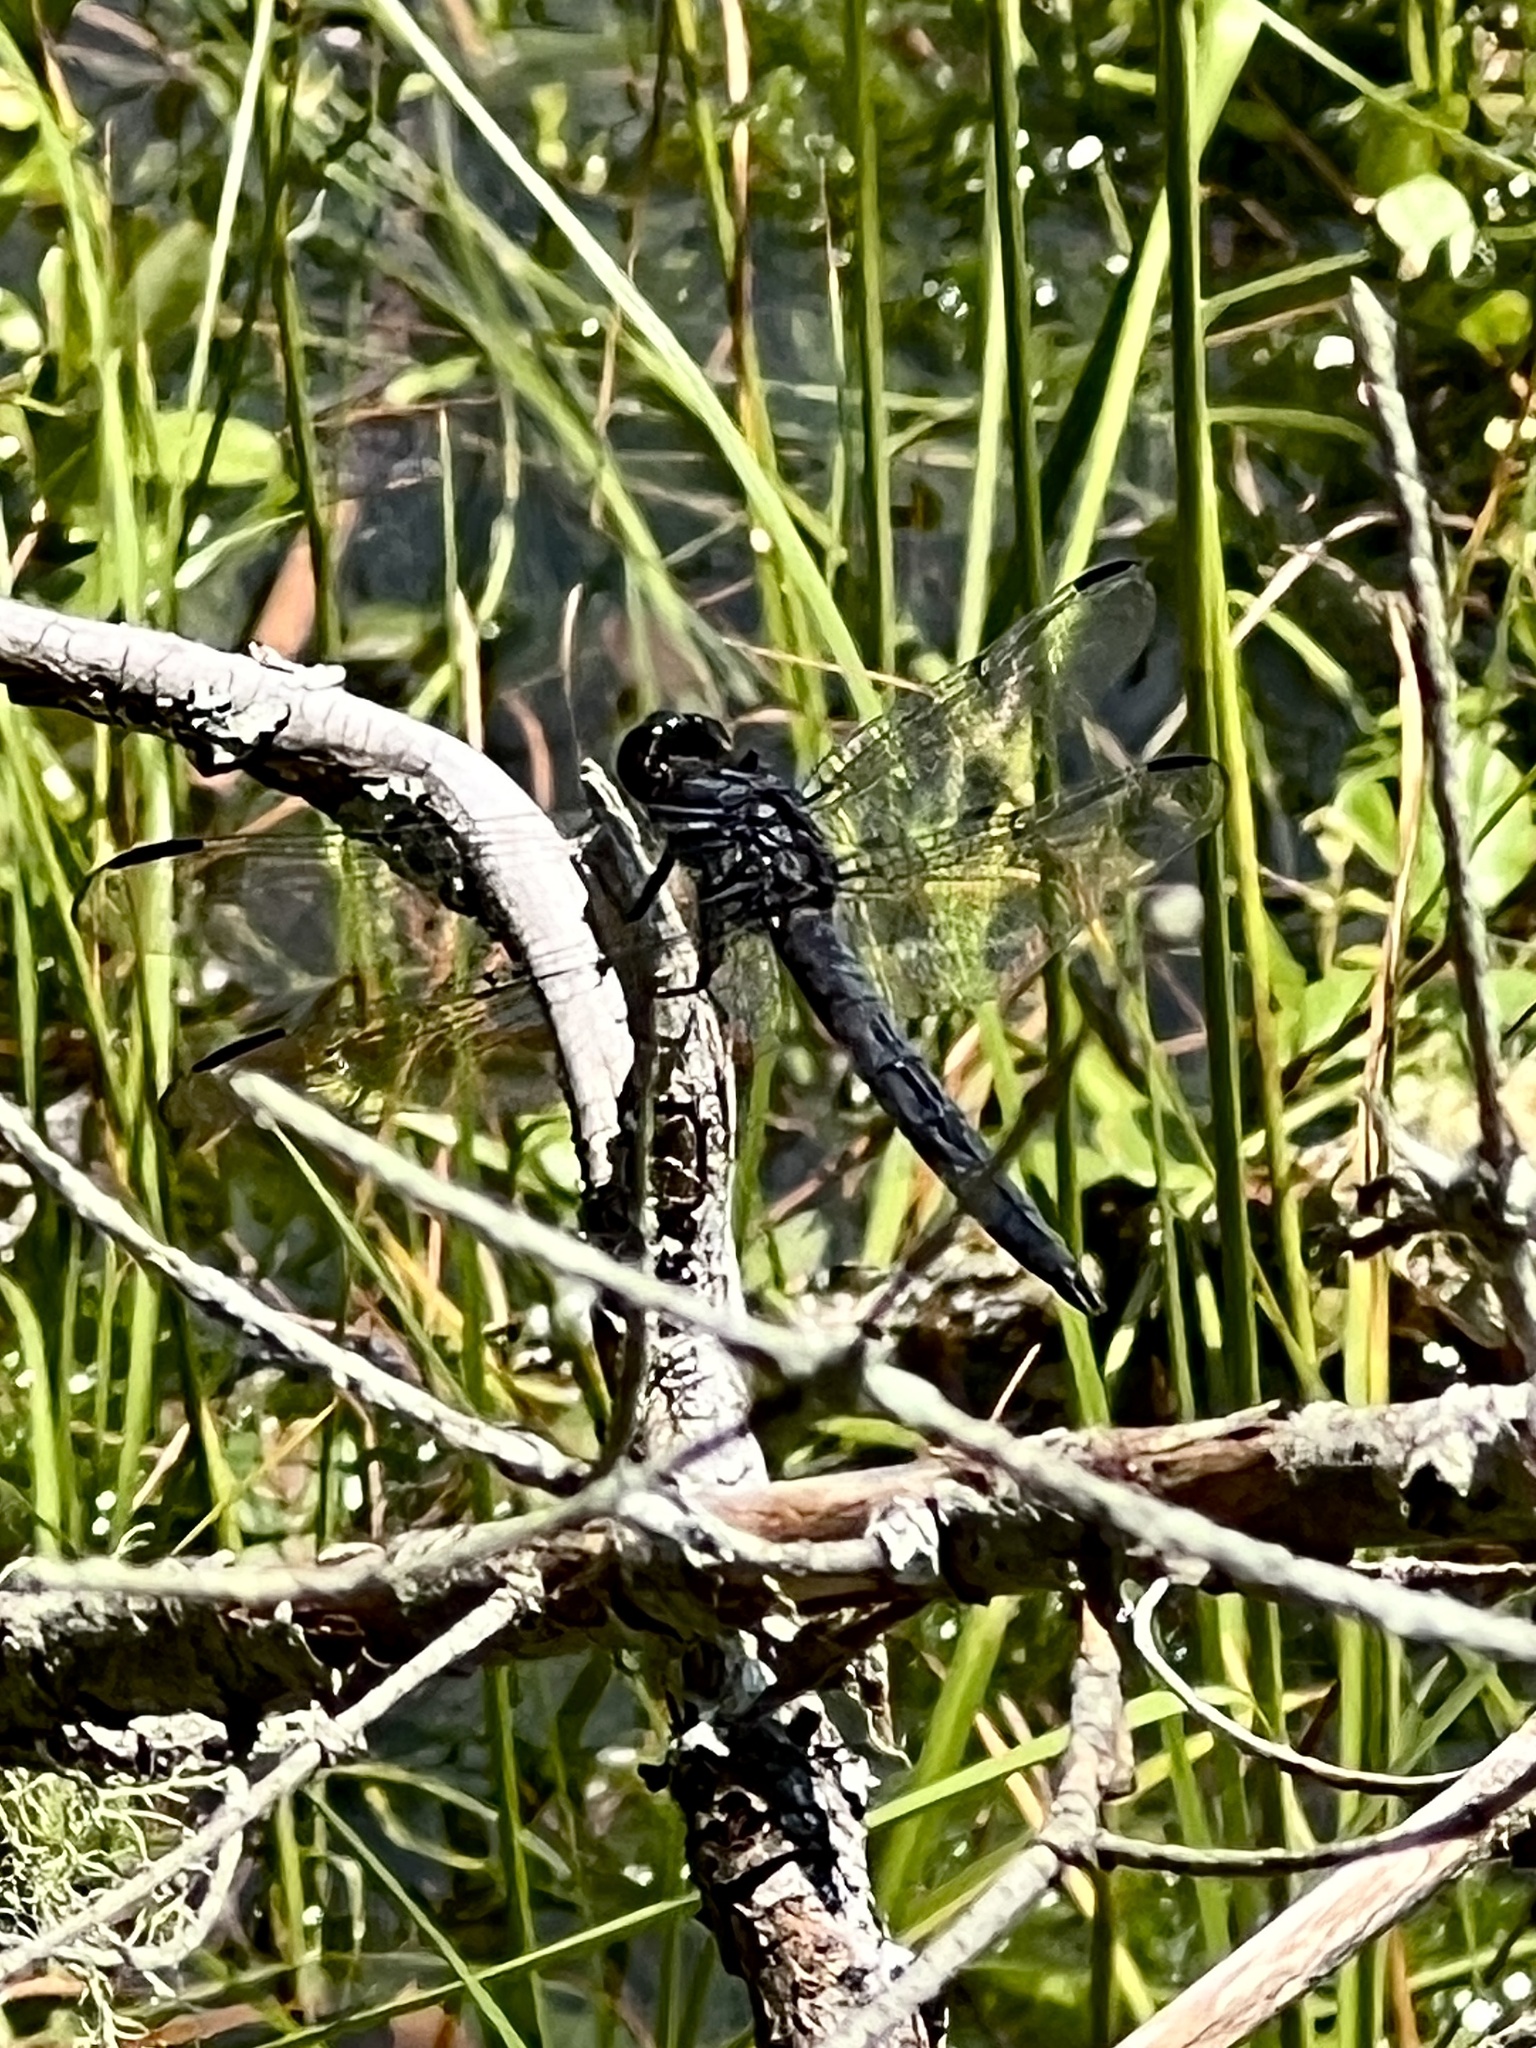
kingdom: Animalia
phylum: Arthropoda
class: Insecta
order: Odonata
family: Libellulidae
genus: Libellula
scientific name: Libellula incesta
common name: Slaty skimmer
